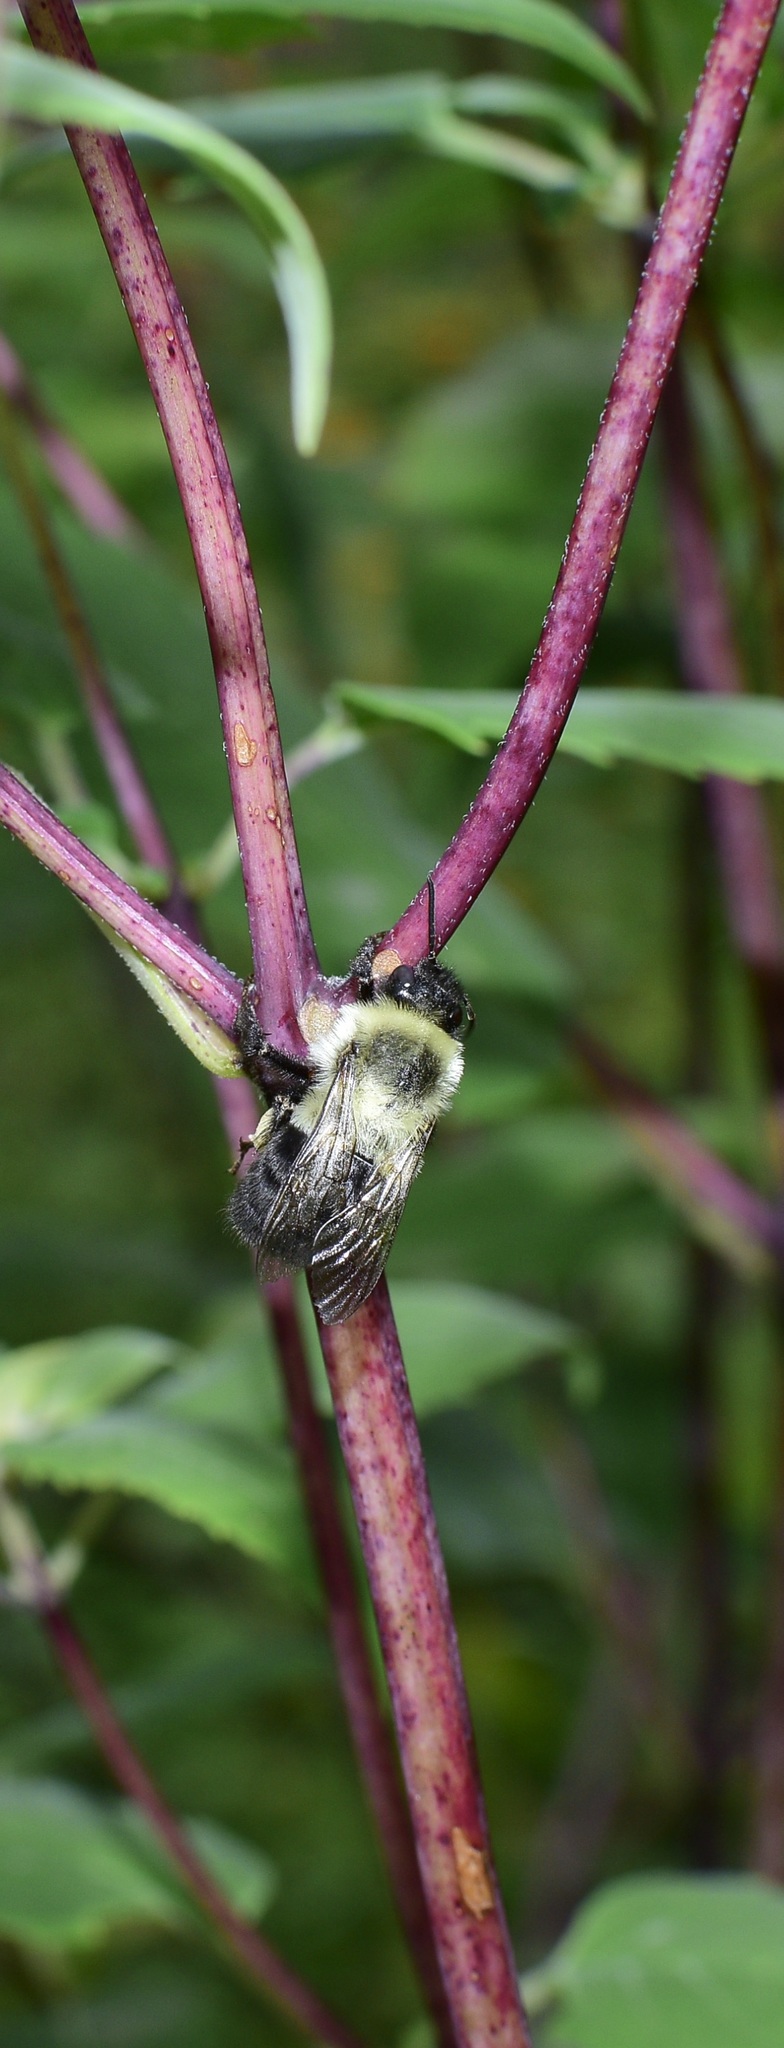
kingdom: Animalia
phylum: Arthropoda
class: Insecta
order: Hymenoptera
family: Apidae
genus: Bombus
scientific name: Bombus impatiens
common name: Common eastern bumble bee
